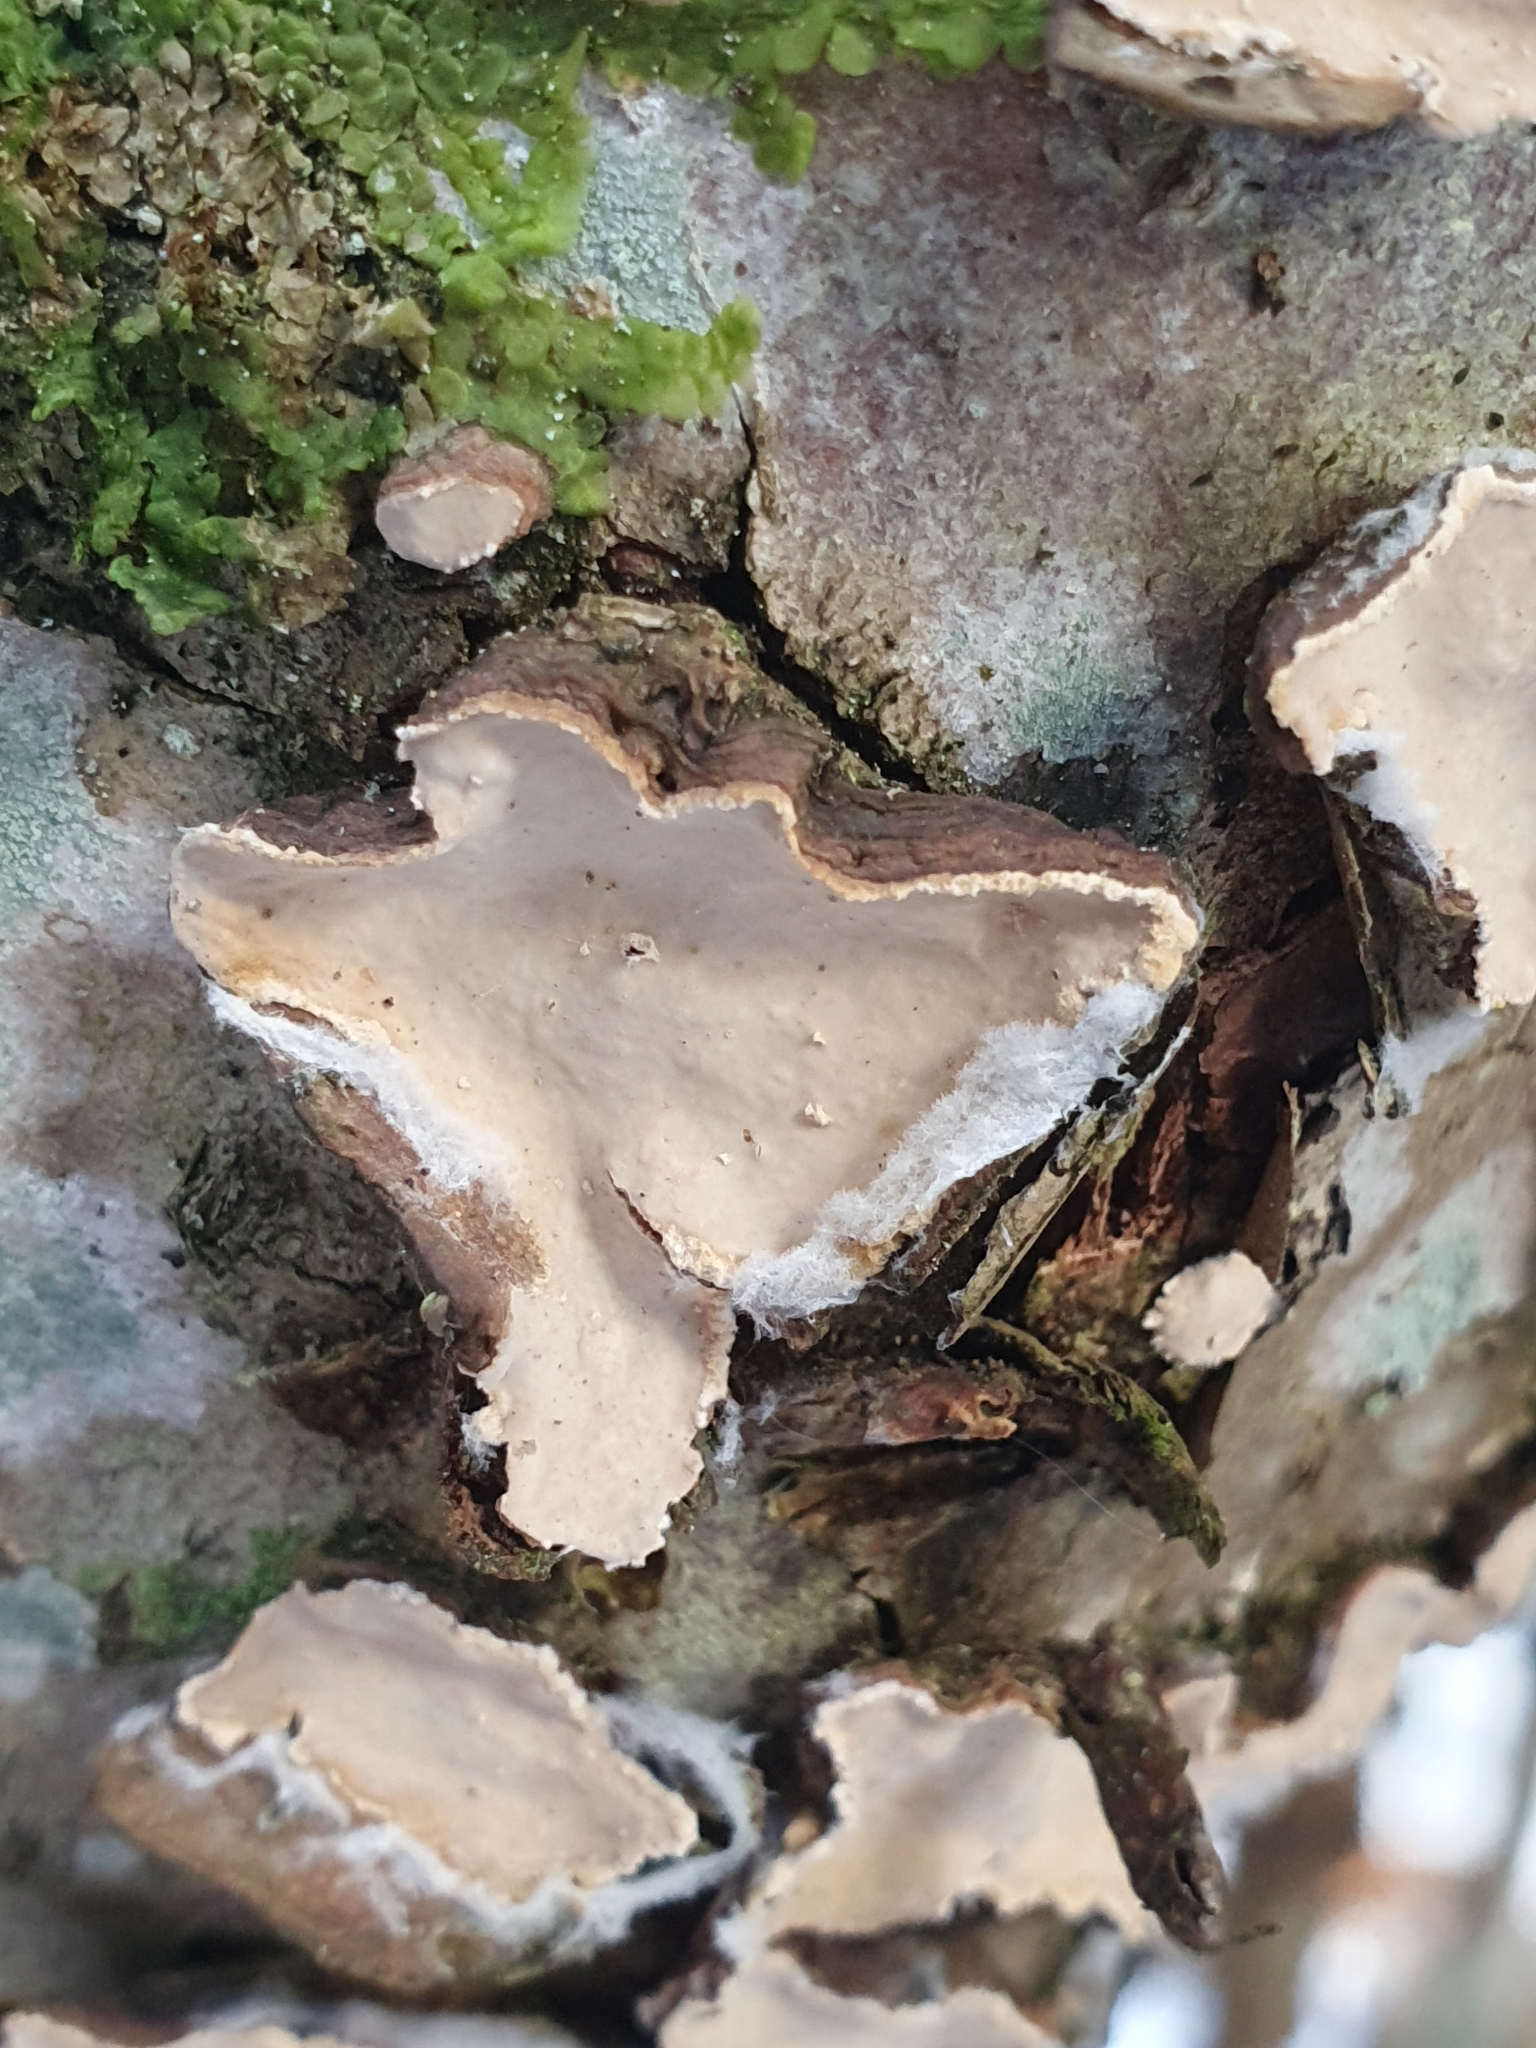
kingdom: Fungi
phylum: Basidiomycota
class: Agaricomycetes
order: Russulales
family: Stereaceae
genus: Stereum
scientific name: Stereum rugosum
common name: Bleeding broadleaf crust
